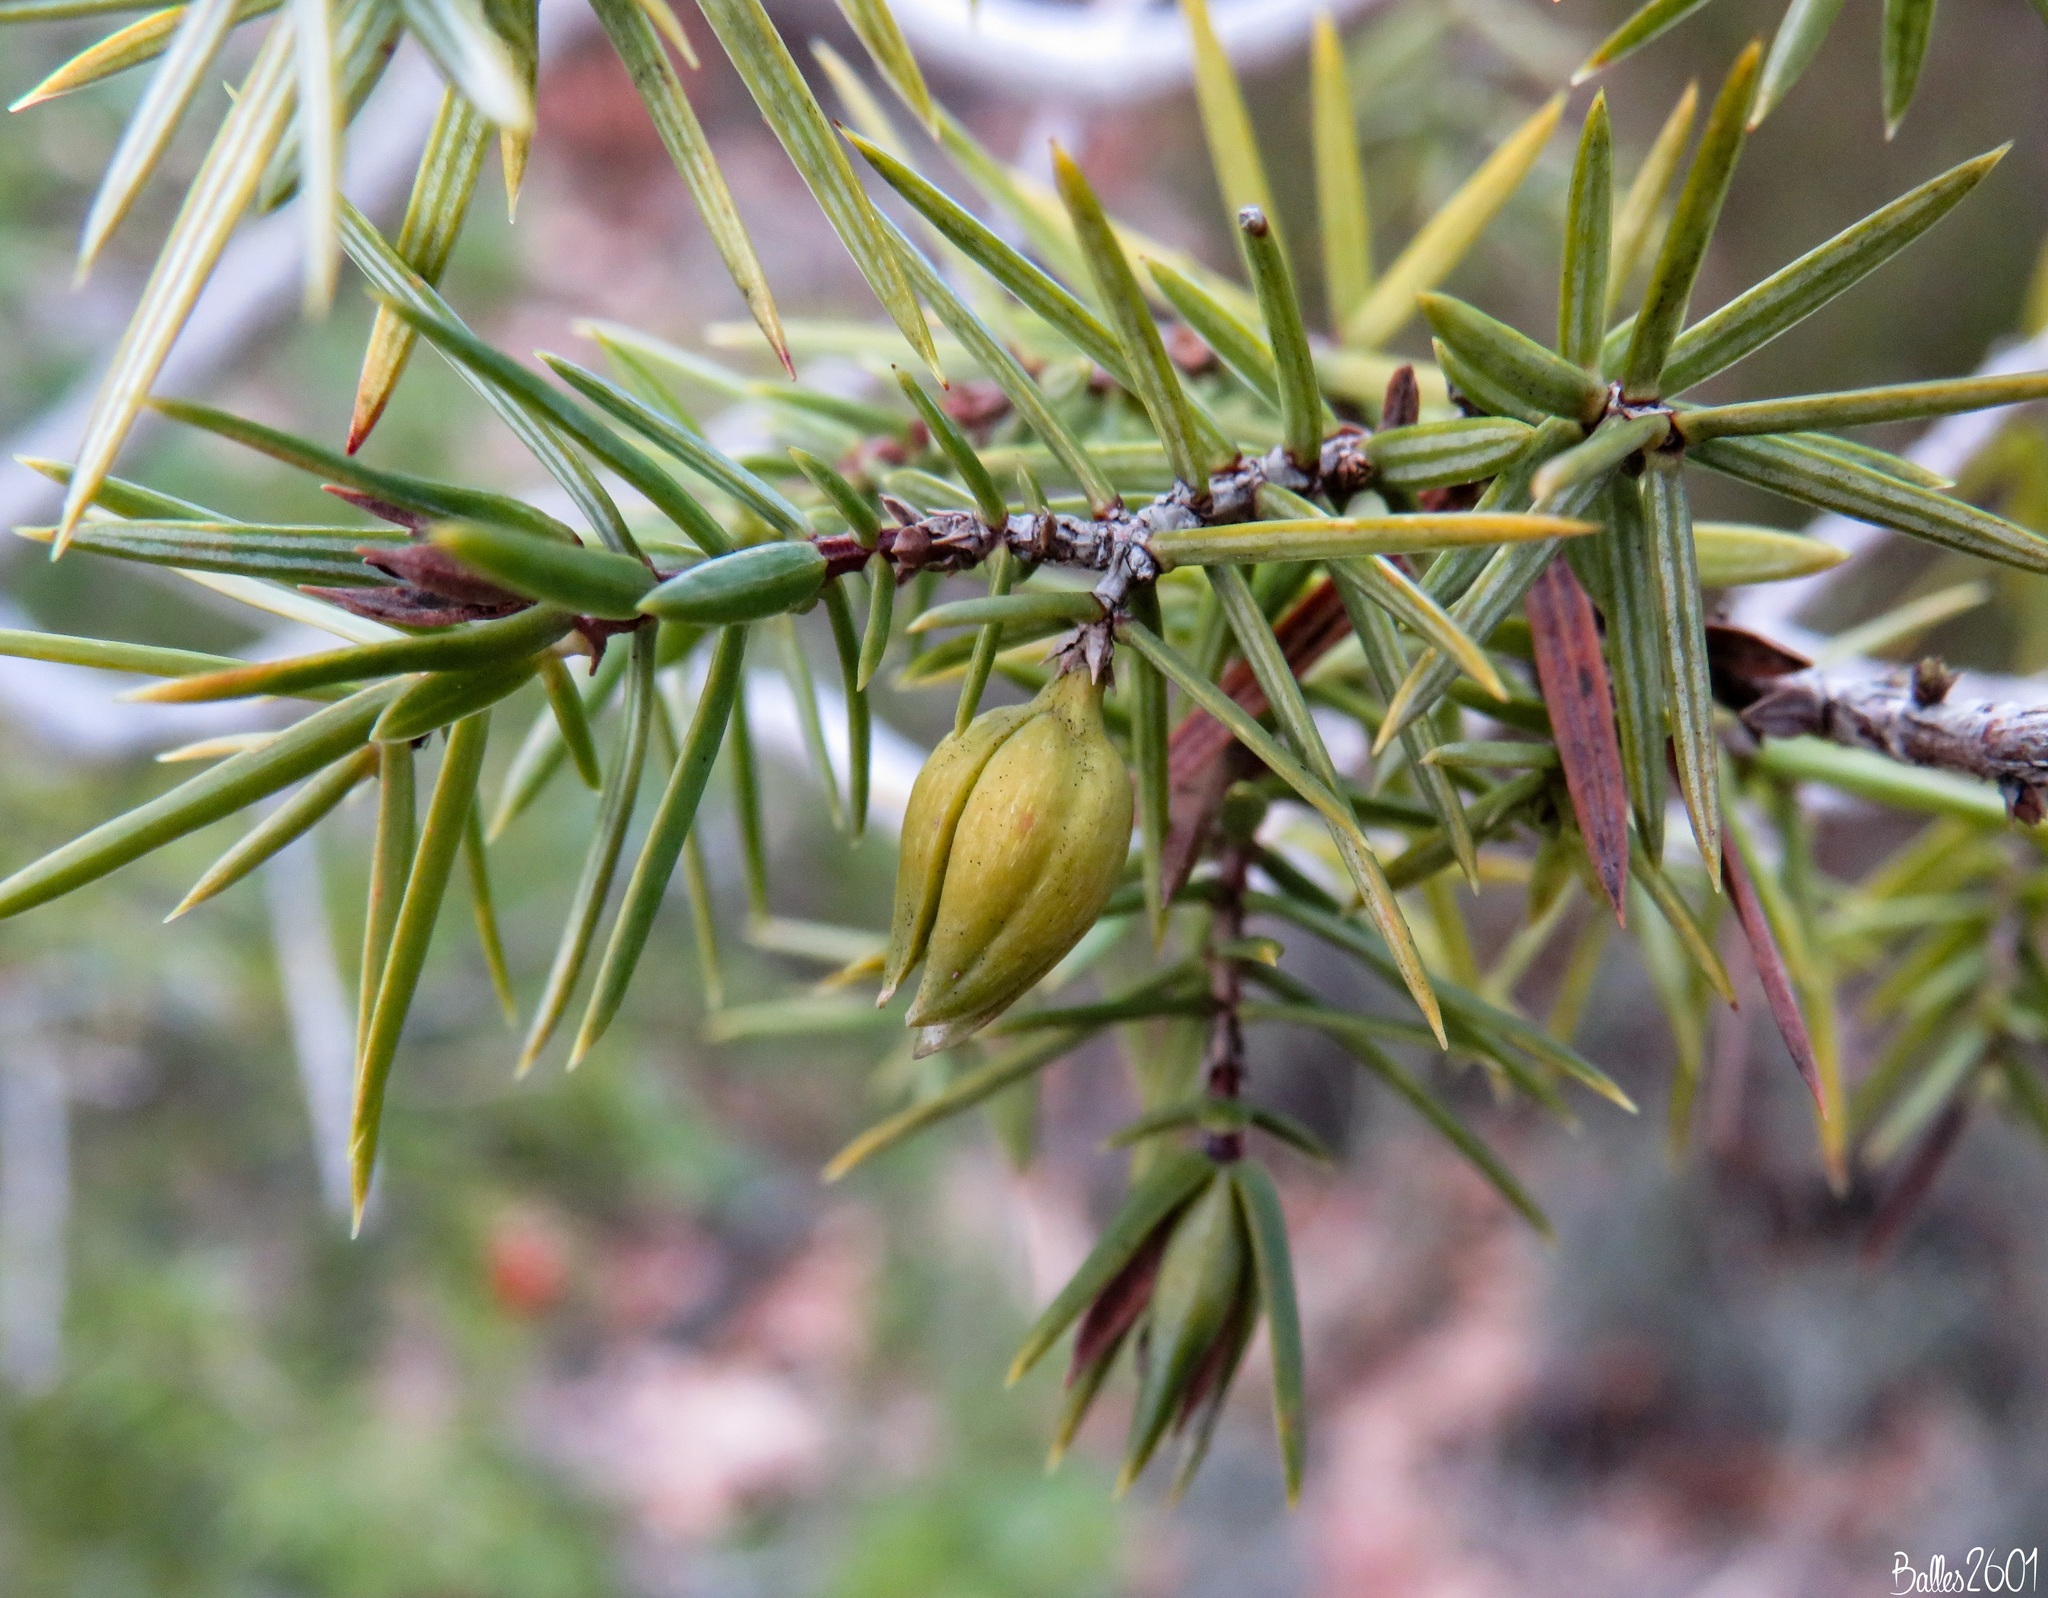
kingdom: Animalia
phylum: Arthropoda
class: Insecta
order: Diptera
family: Cecidomyiidae
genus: Oligotrophus
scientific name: Oligotrophus schmidti
